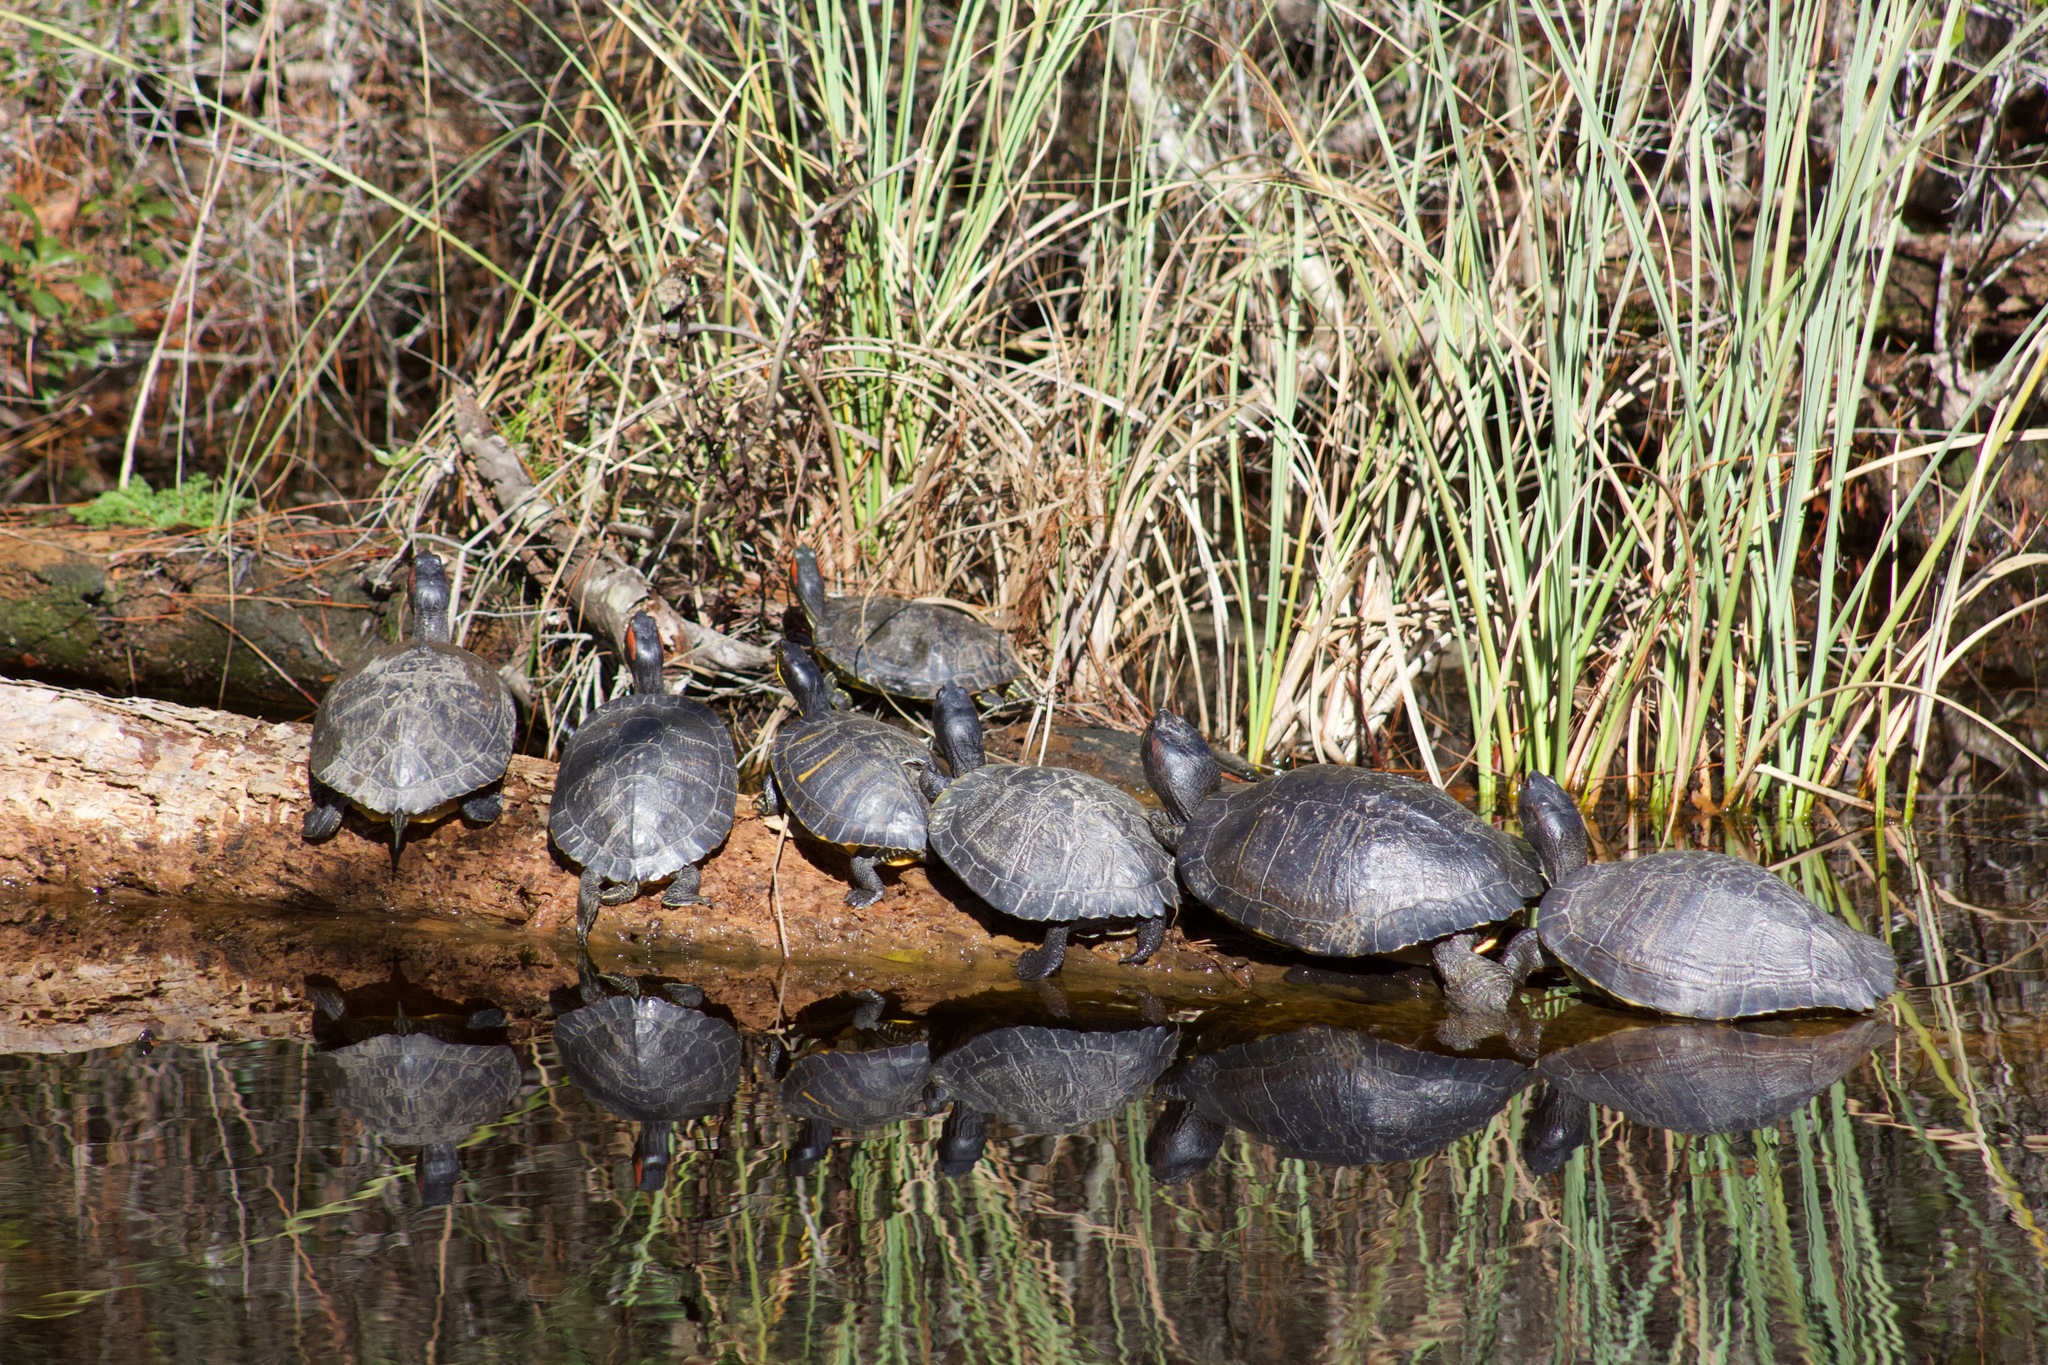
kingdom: Animalia
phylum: Chordata
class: Testudines
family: Emydidae
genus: Trachemys
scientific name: Trachemys scripta
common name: Slider
